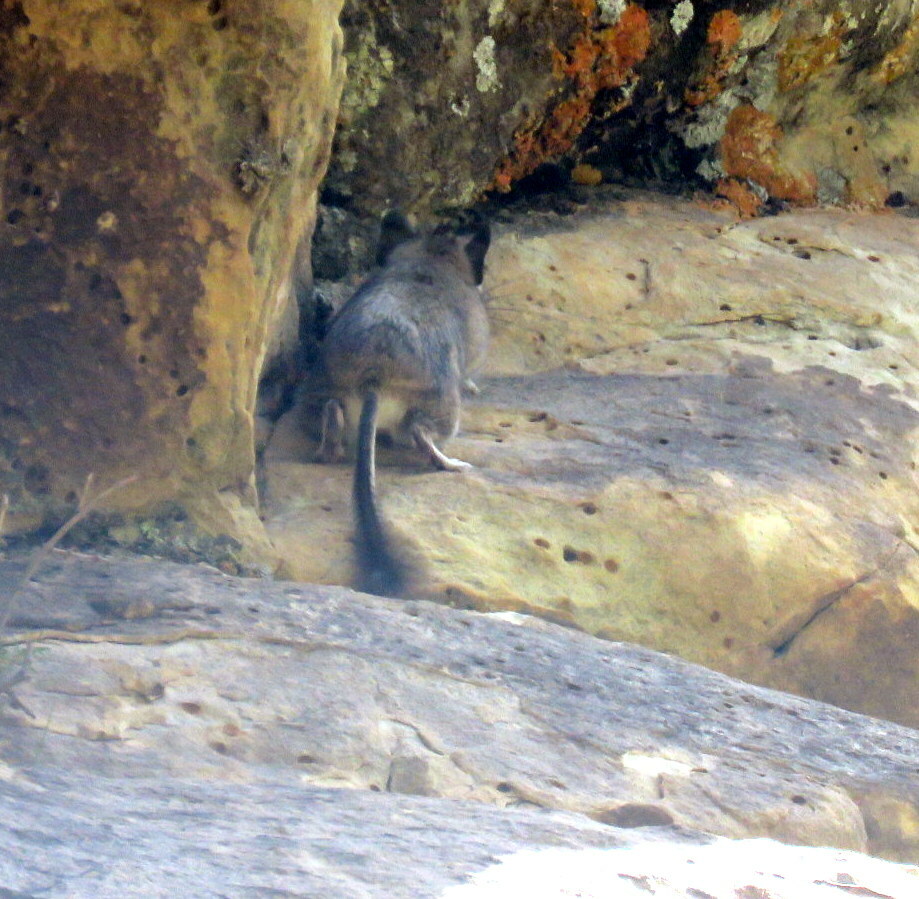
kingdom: Animalia
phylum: Chordata
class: Mammalia
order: Rodentia
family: Octodontidae
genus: Octodontomys
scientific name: Octodontomys gliroides
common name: Mountain degu
